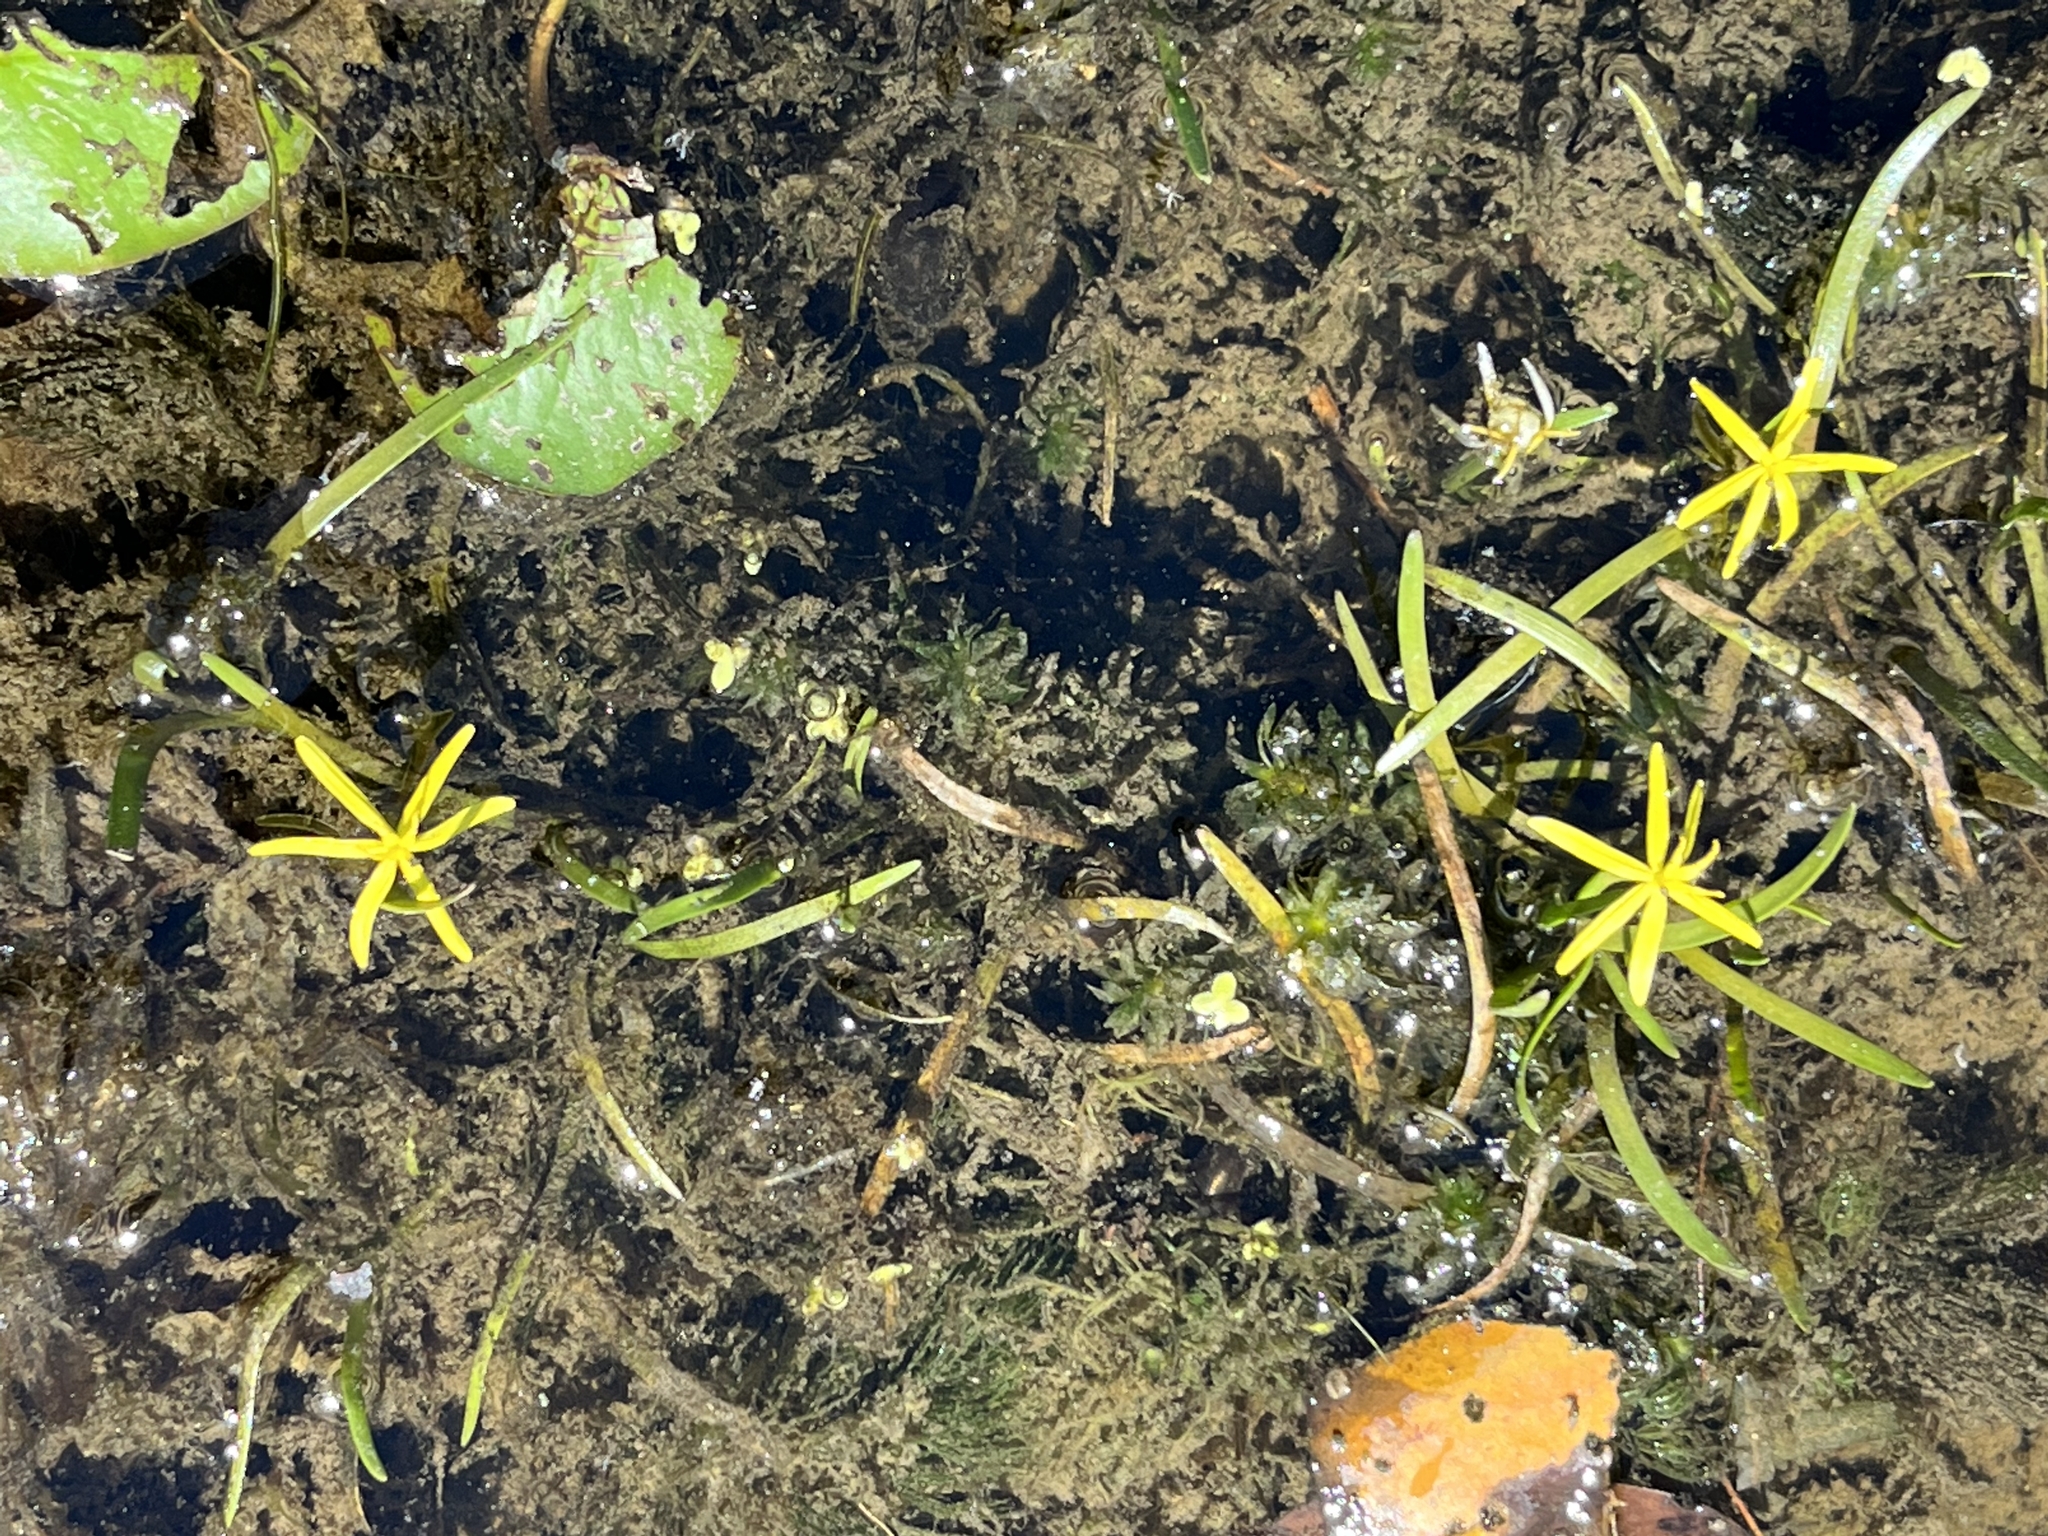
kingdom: Plantae
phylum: Tracheophyta
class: Liliopsida
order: Commelinales
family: Pontederiaceae
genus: Heteranthera
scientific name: Heteranthera dubia
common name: Grass-leaved mud plantain
